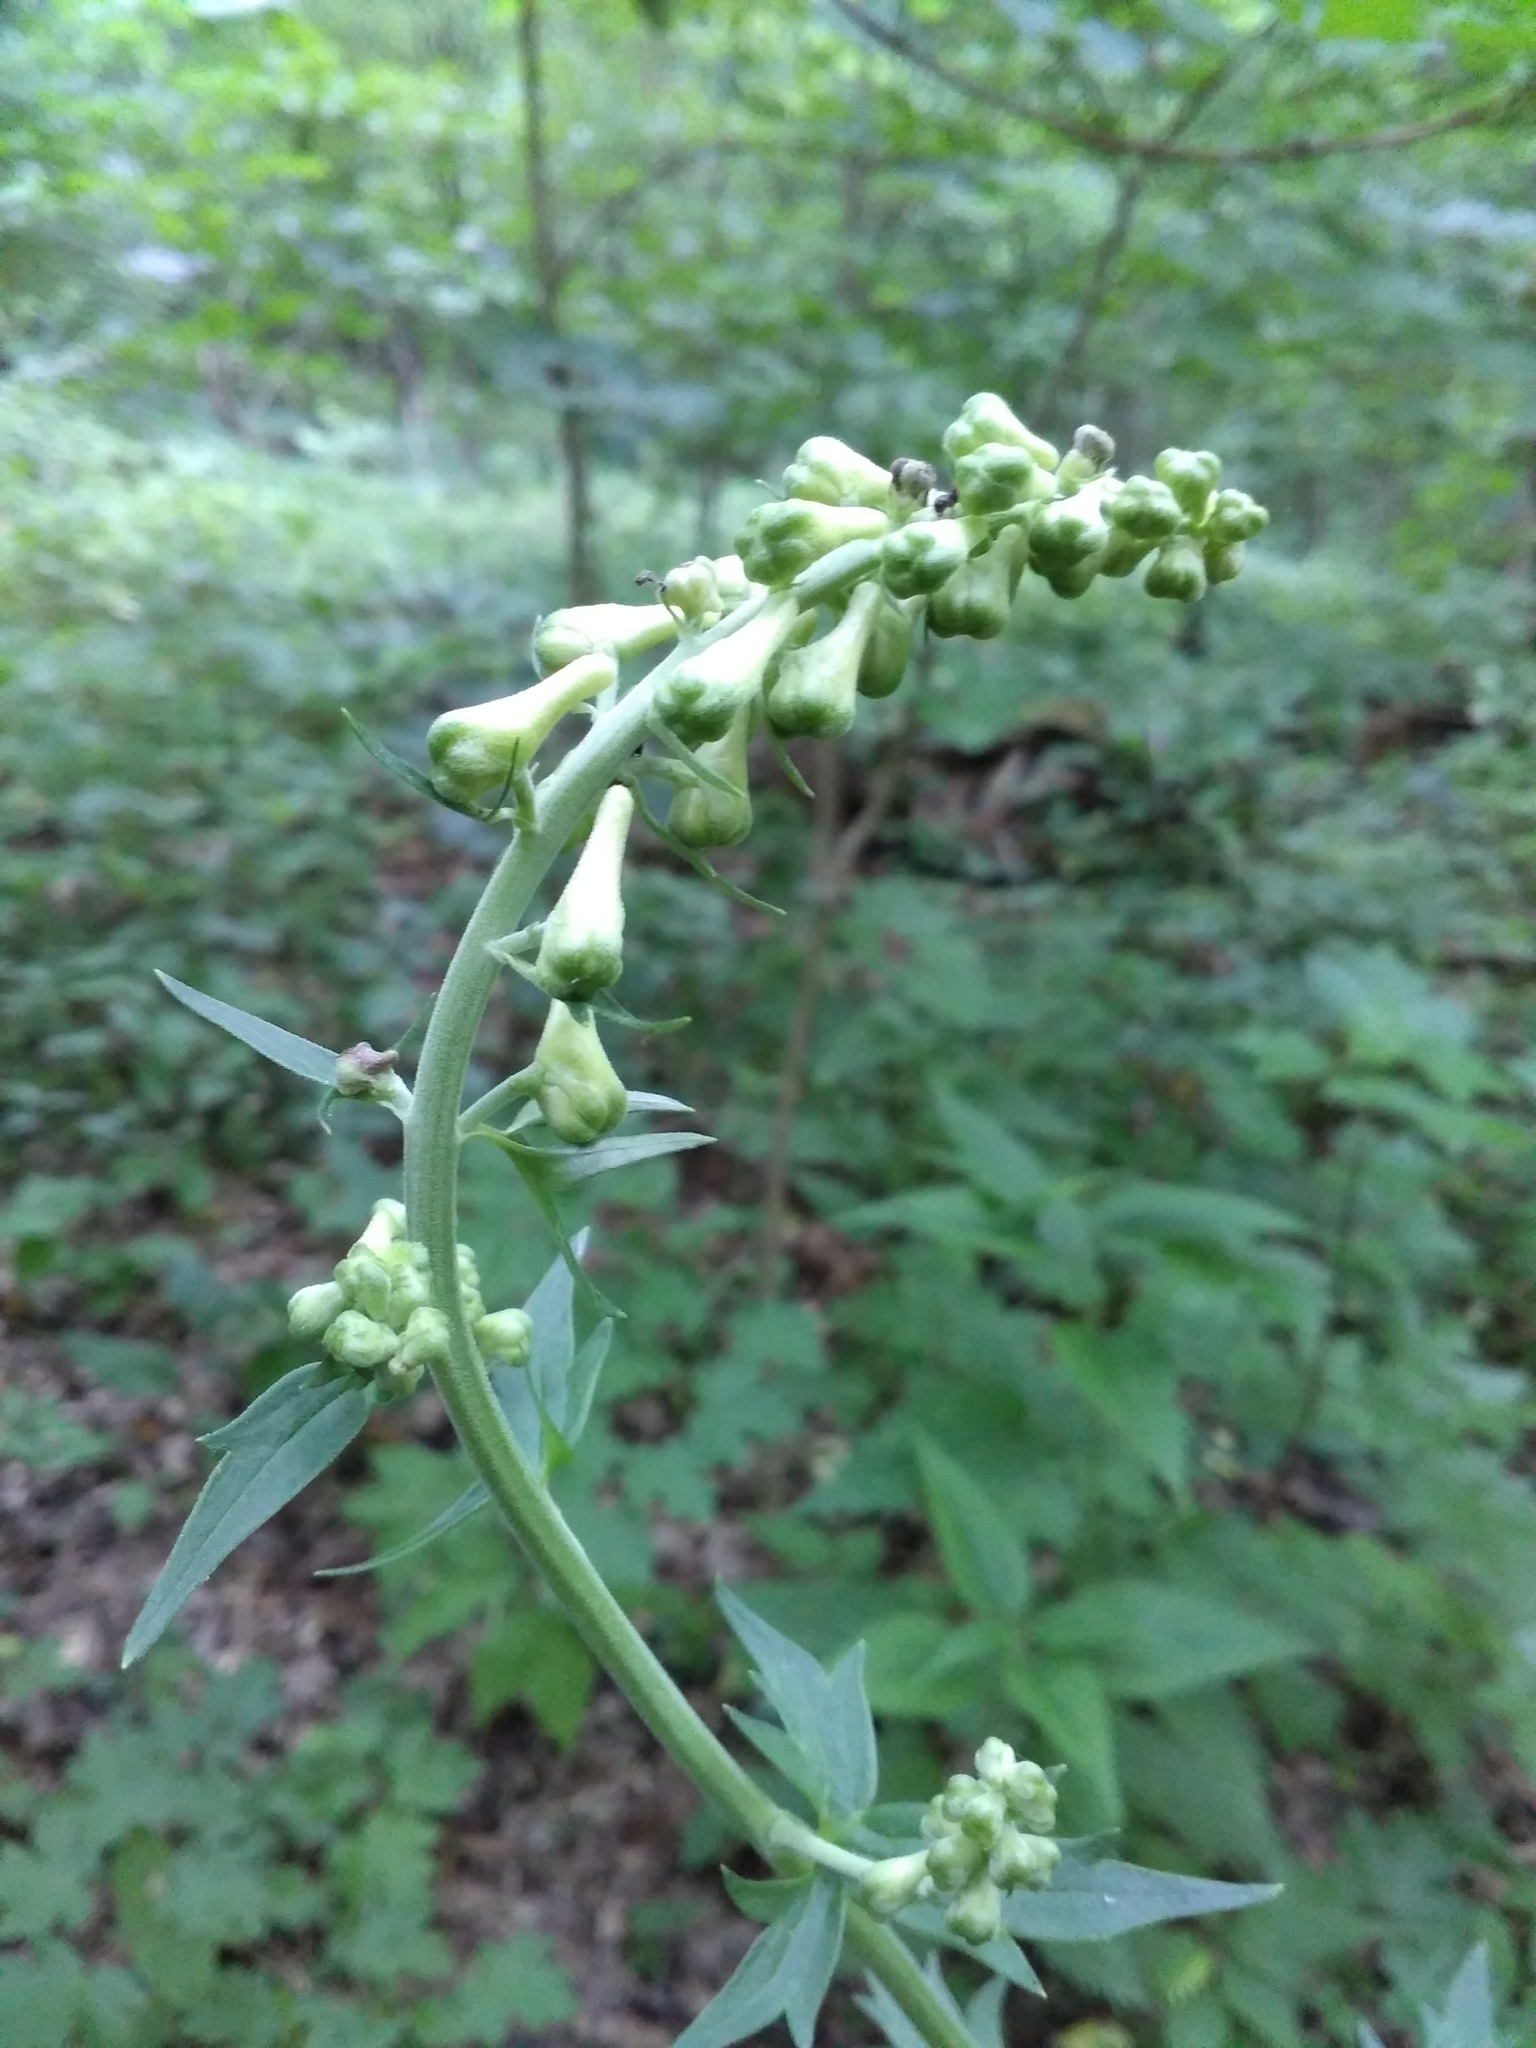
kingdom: Plantae
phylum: Tracheophyta
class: Magnoliopsida
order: Ranunculales
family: Ranunculaceae
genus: Aconitum
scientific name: Aconitum lasiostomum
